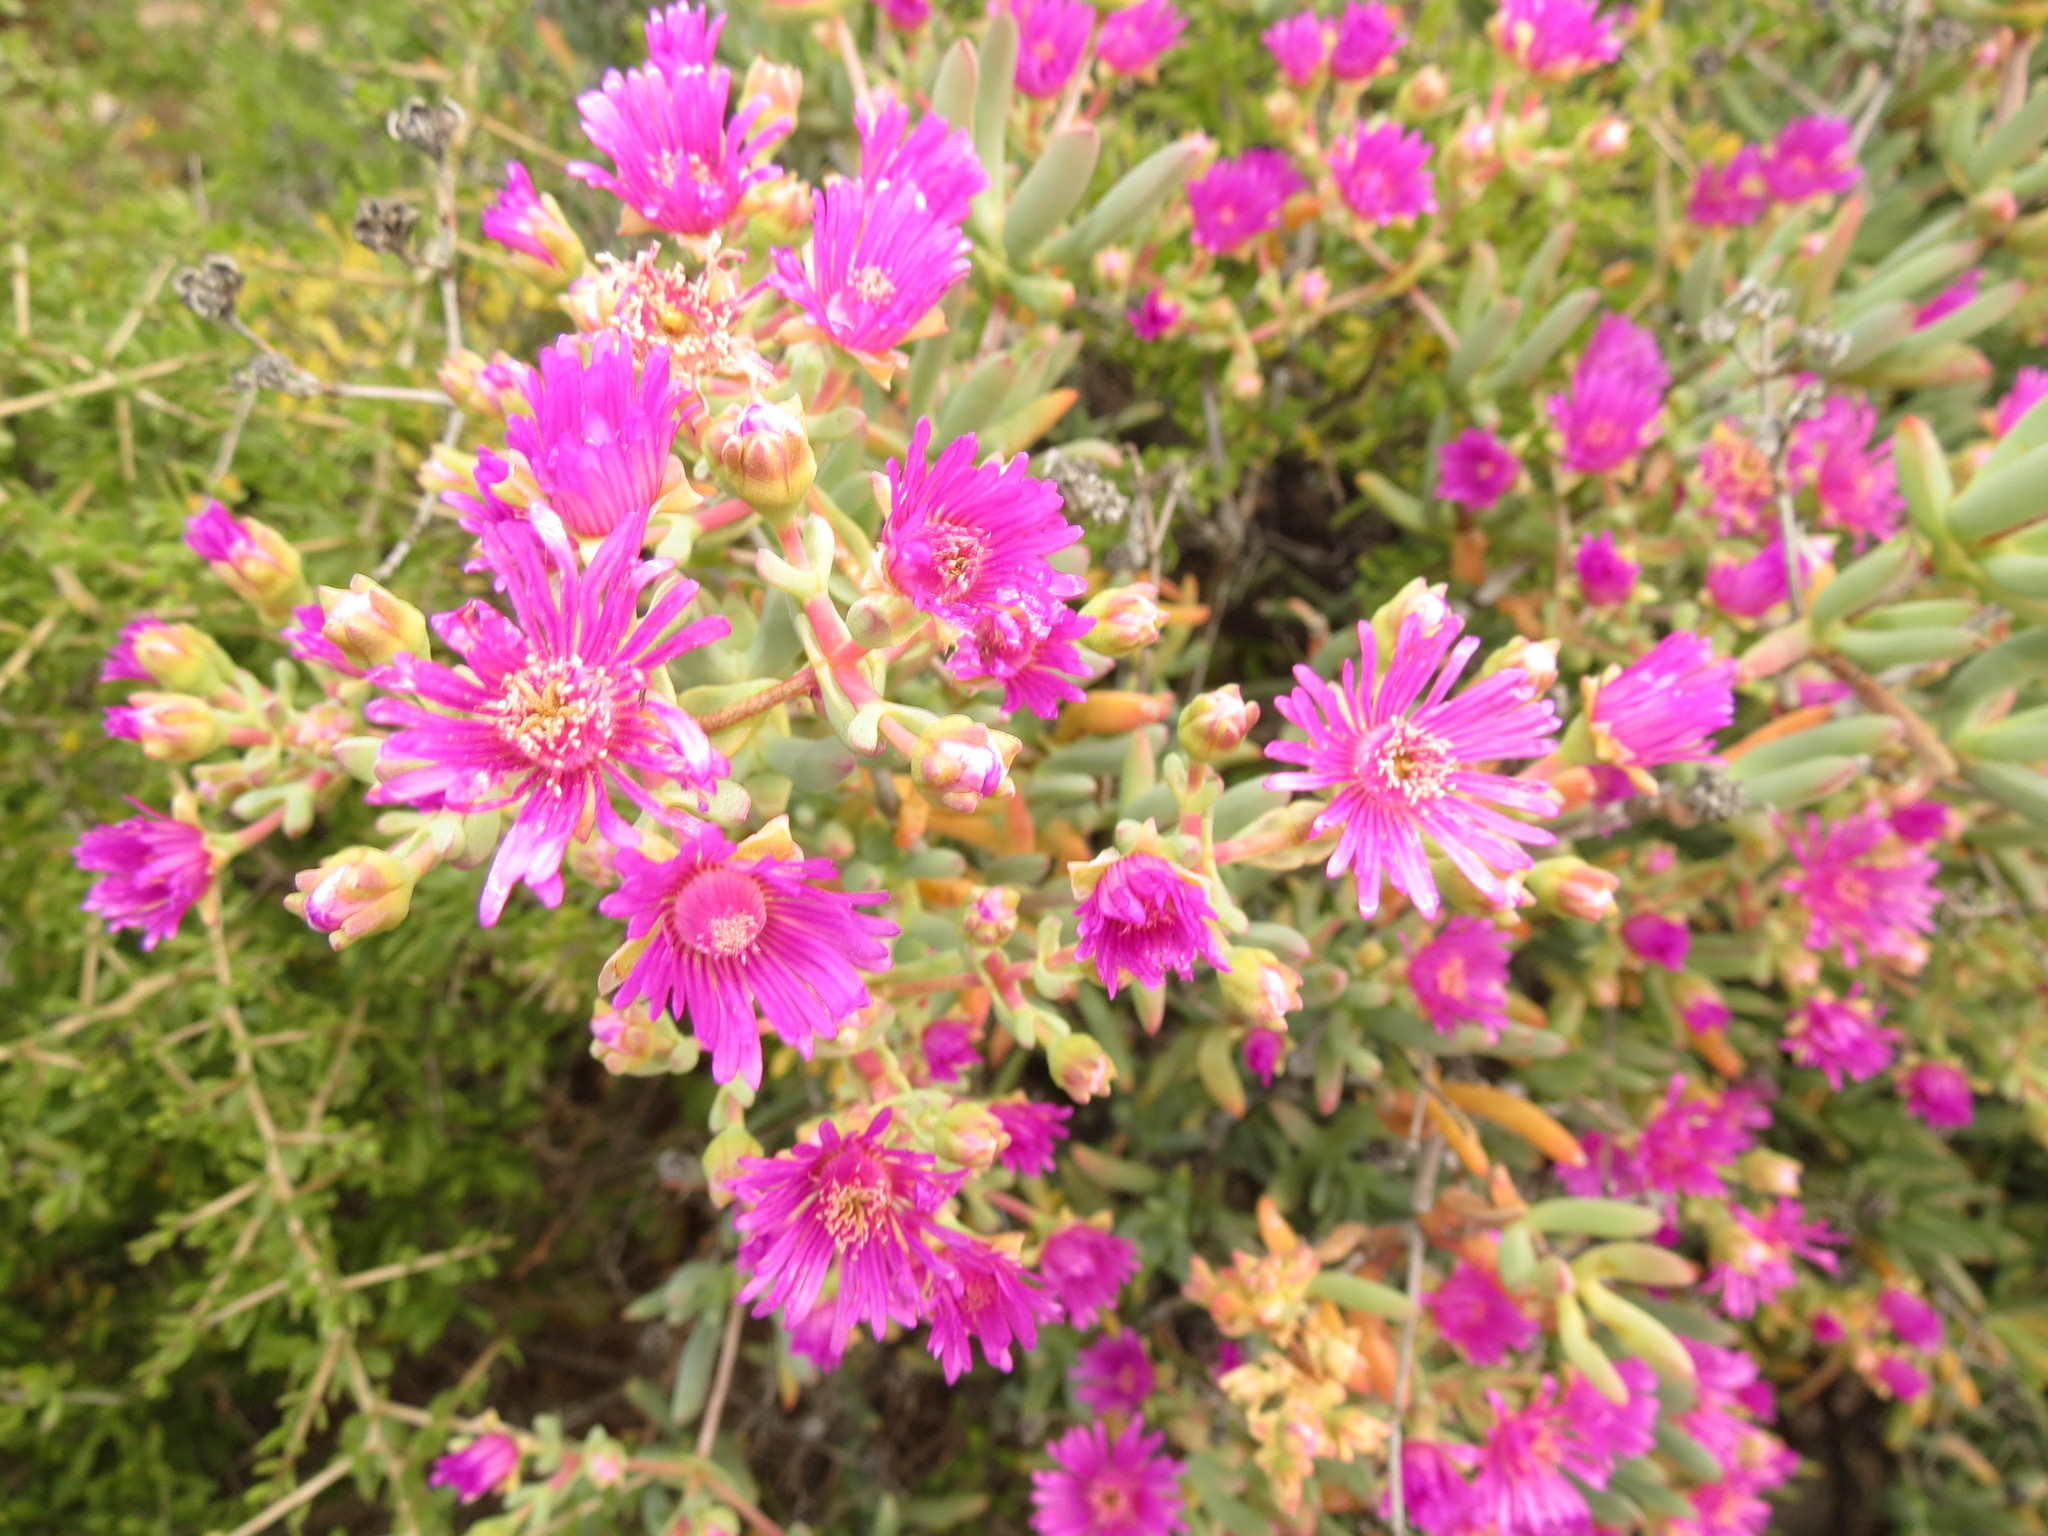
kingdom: Plantae
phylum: Tracheophyta
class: Magnoliopsida
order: Caryophyllales
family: Aizoaceae
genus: Leipoldtia
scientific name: Leipoldtia schultzei
